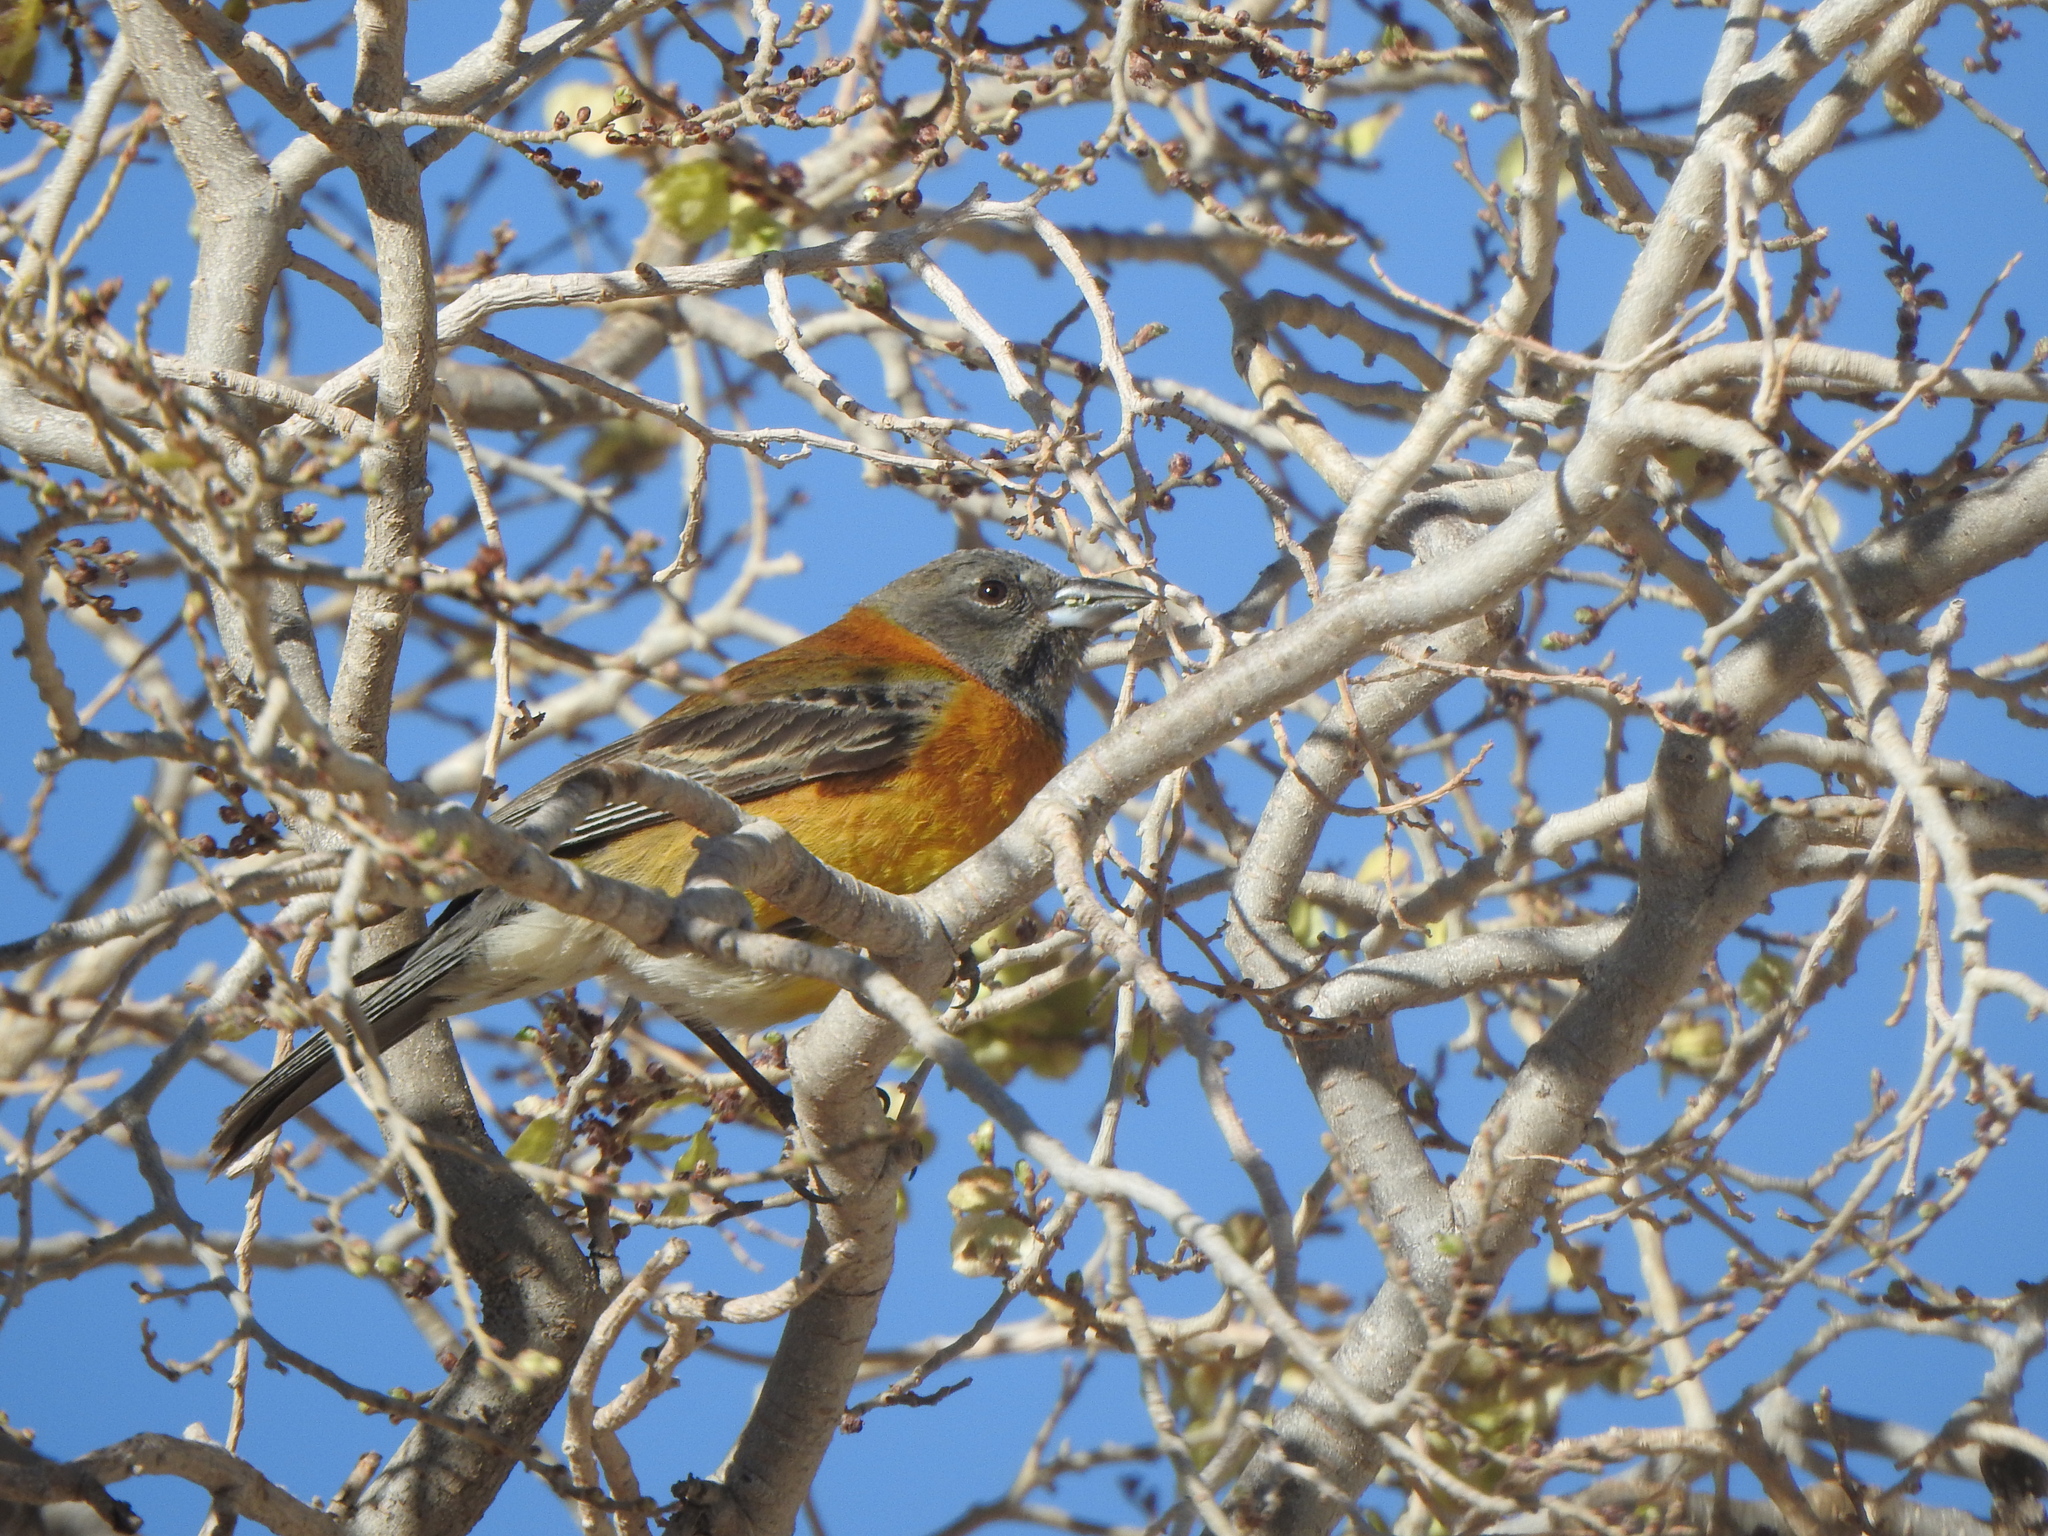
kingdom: Animalia
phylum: Chordata
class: Aves
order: Passeriformes
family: Thraupidae
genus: Phrygilus
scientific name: Phrygilus atriceps
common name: Black-hooded sierra finch
